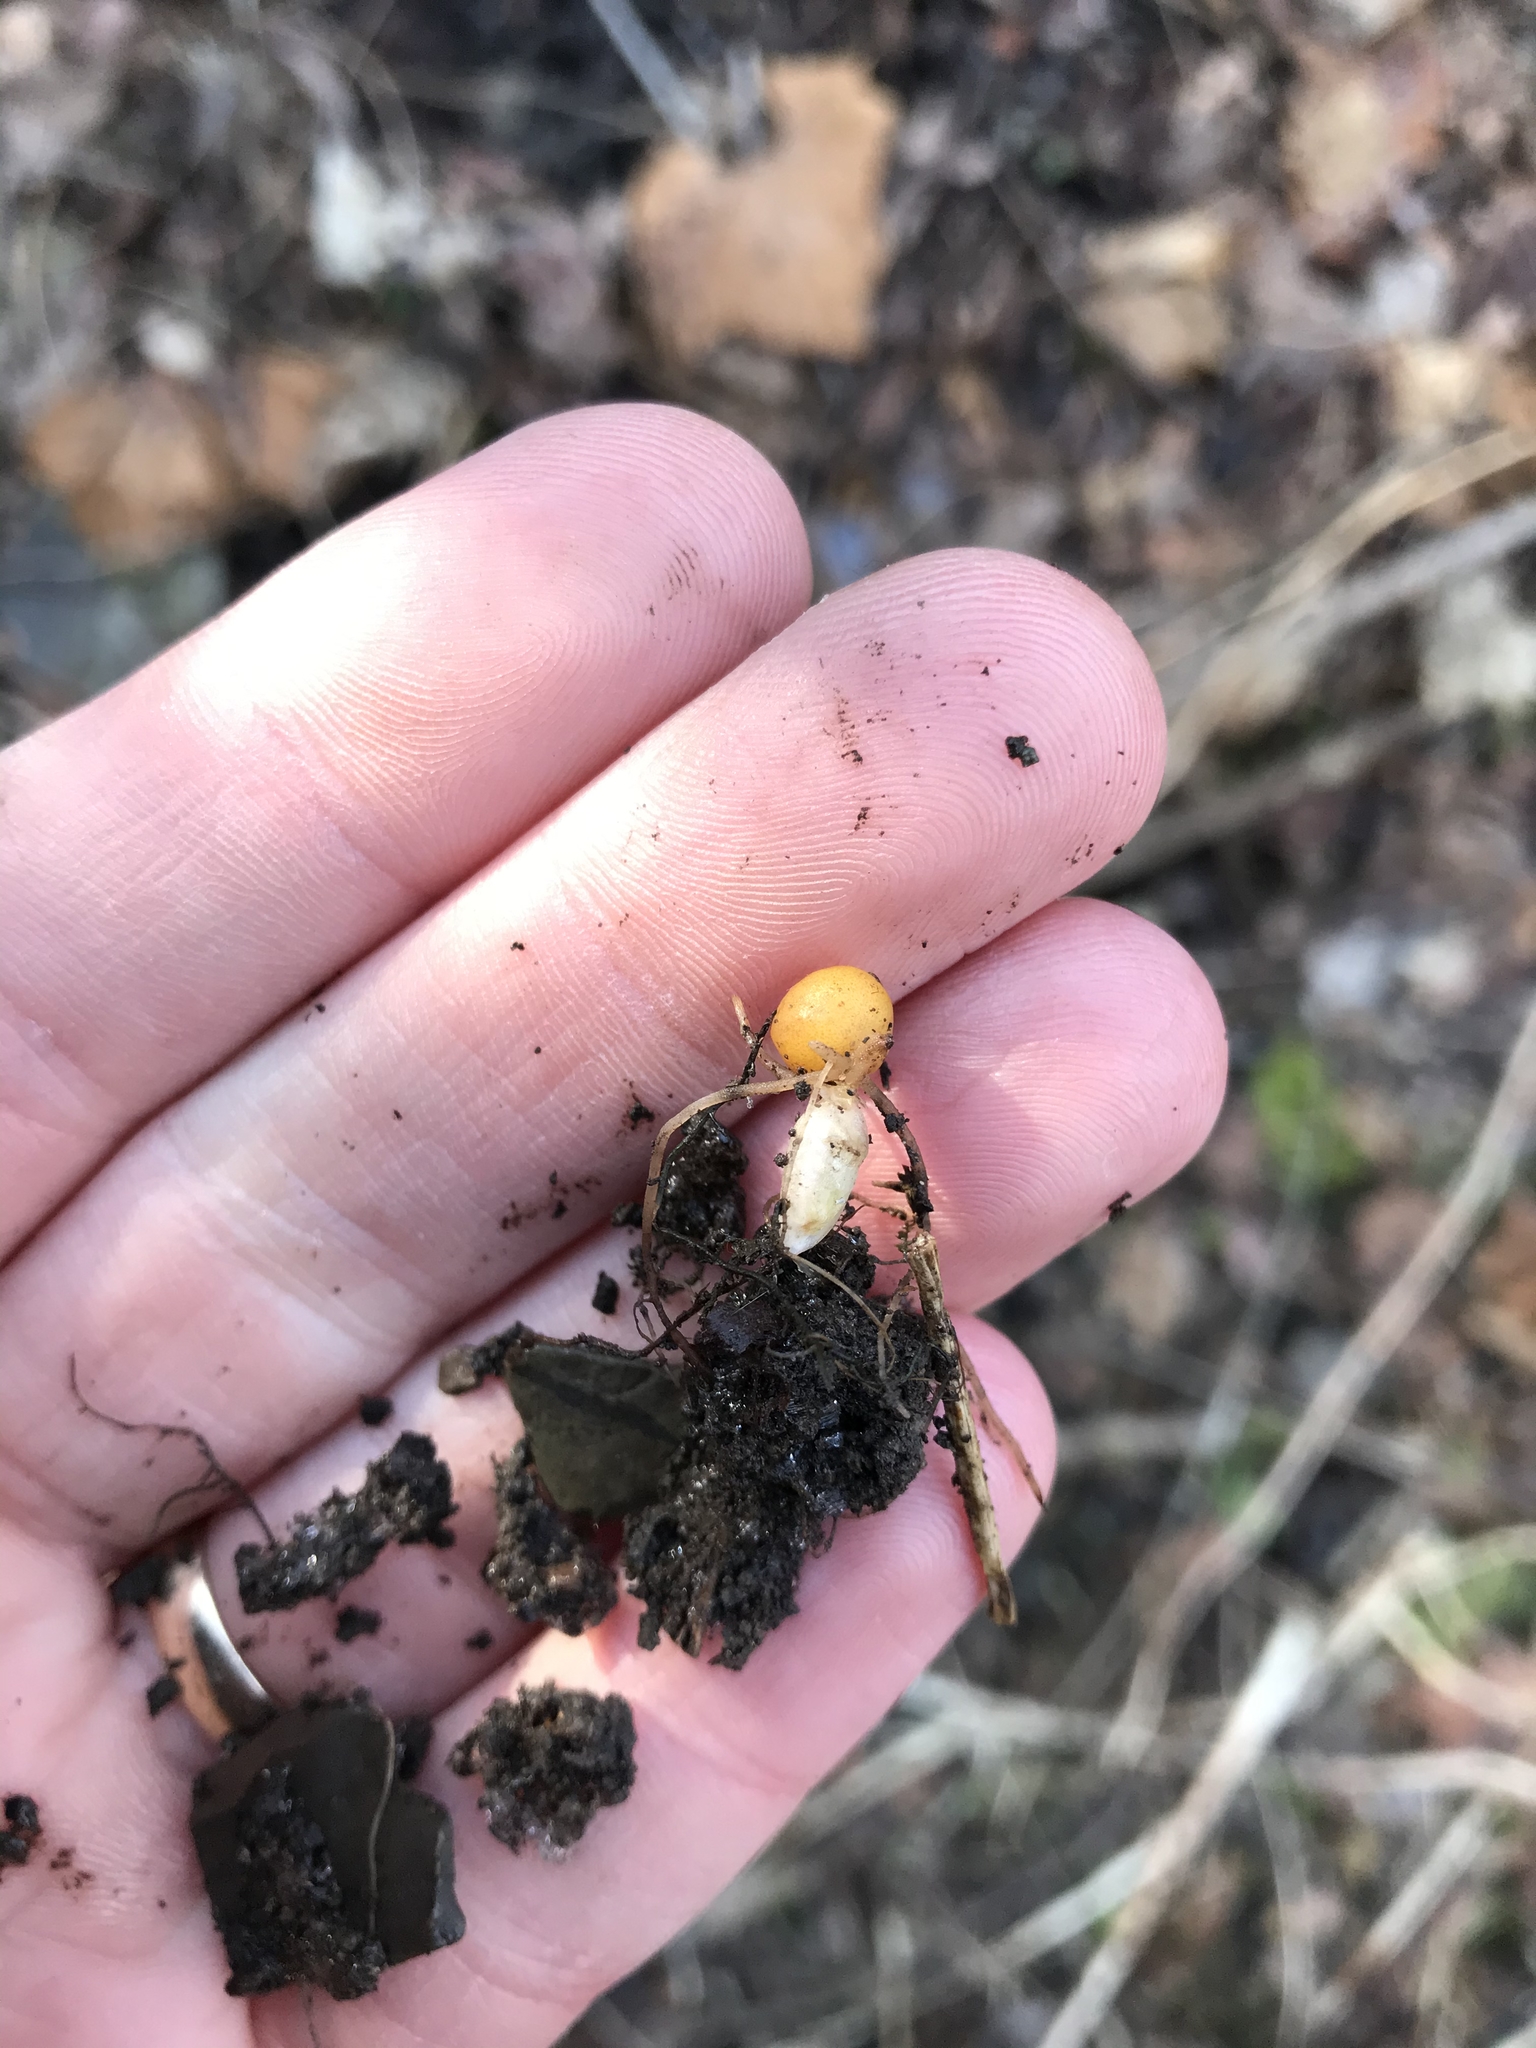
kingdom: Plantae
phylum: Tracheophyta
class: Magnoliopsida
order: Ranunculales
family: Papaveraceae
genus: Dicentra
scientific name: Dicentra canadensis
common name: Squirrel-corn
